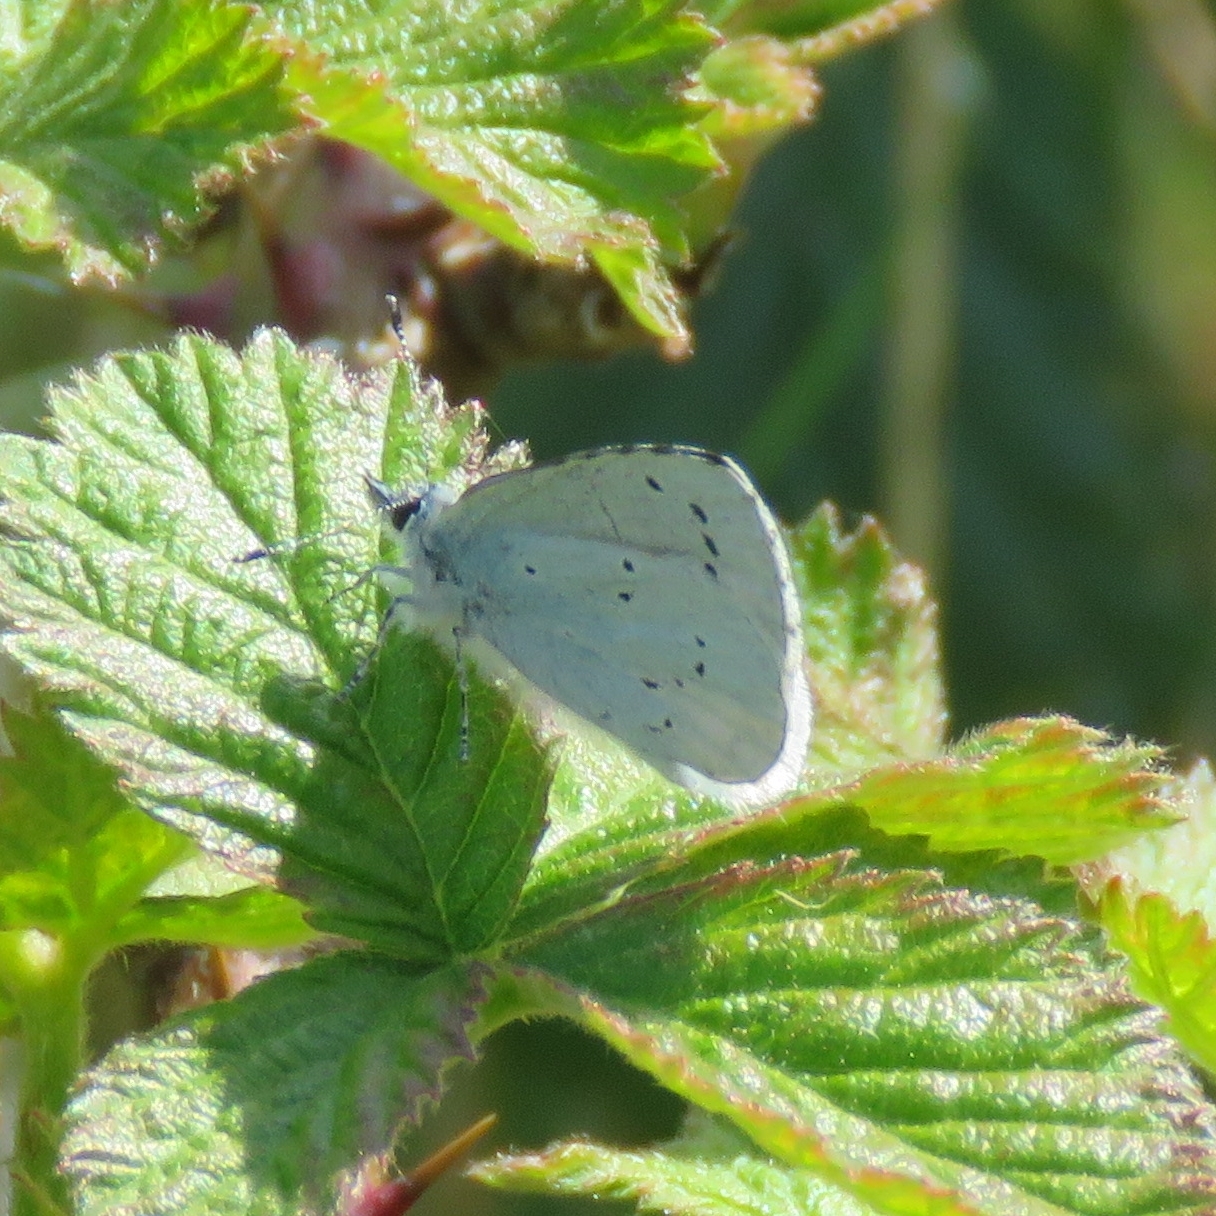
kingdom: Animalia
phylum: Arthropoda
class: Insecta
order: Lepidoptera
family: Lycaenidae
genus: Celastrina
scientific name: Celastrina argiolus
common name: Holly blue
